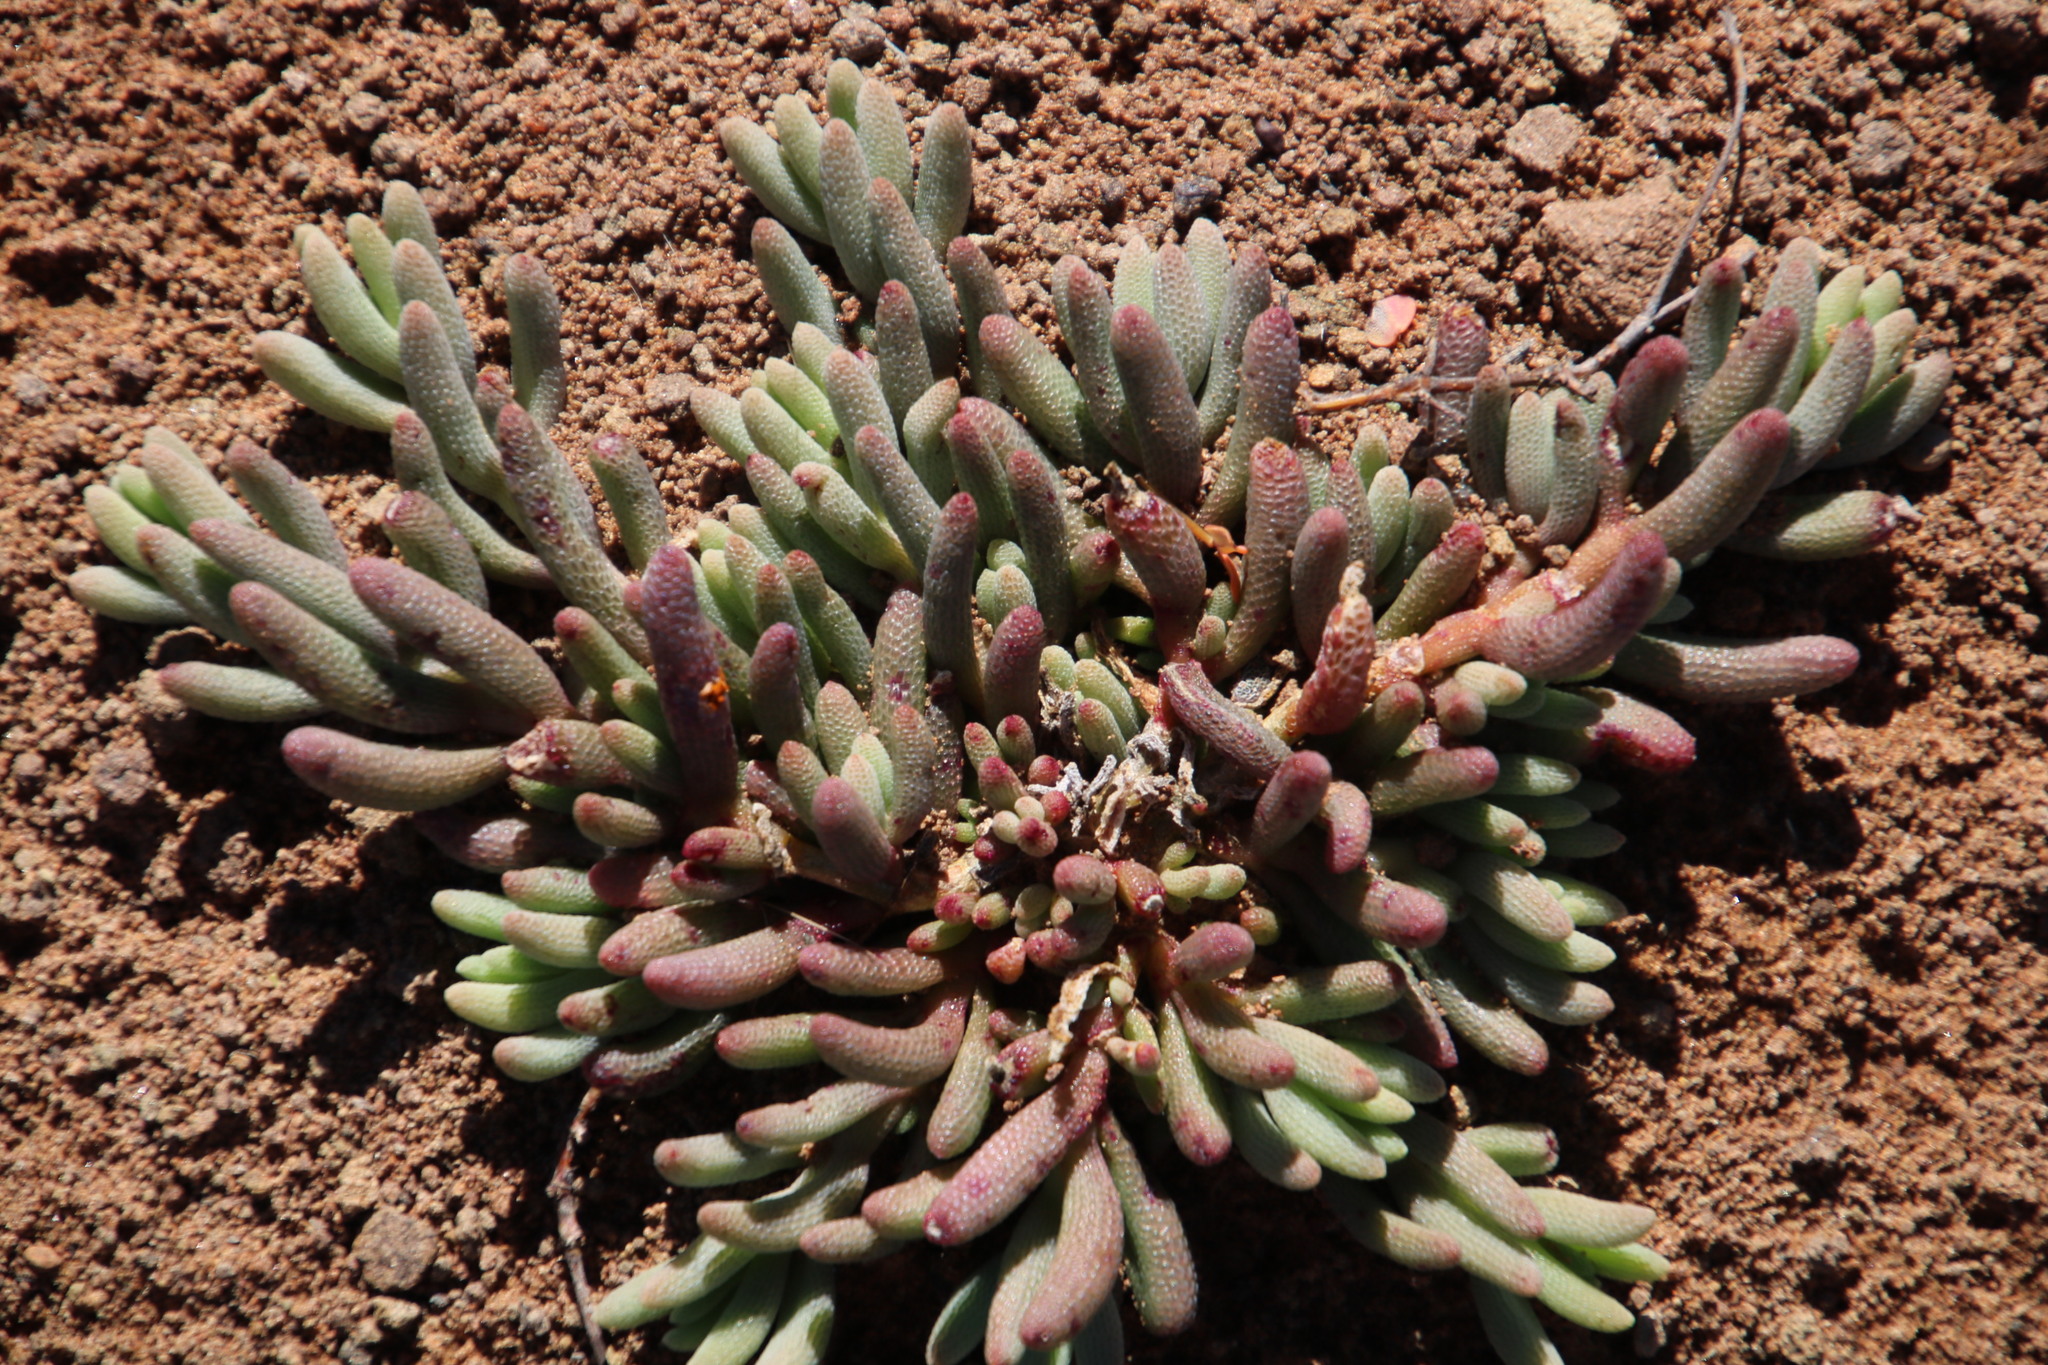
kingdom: Plantae
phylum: Tracheophyta
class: Magnoliopsida
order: Caryophyllales
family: Aizoaceae
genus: Mesembryanthemum
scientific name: Mesembryanthemum grossum
